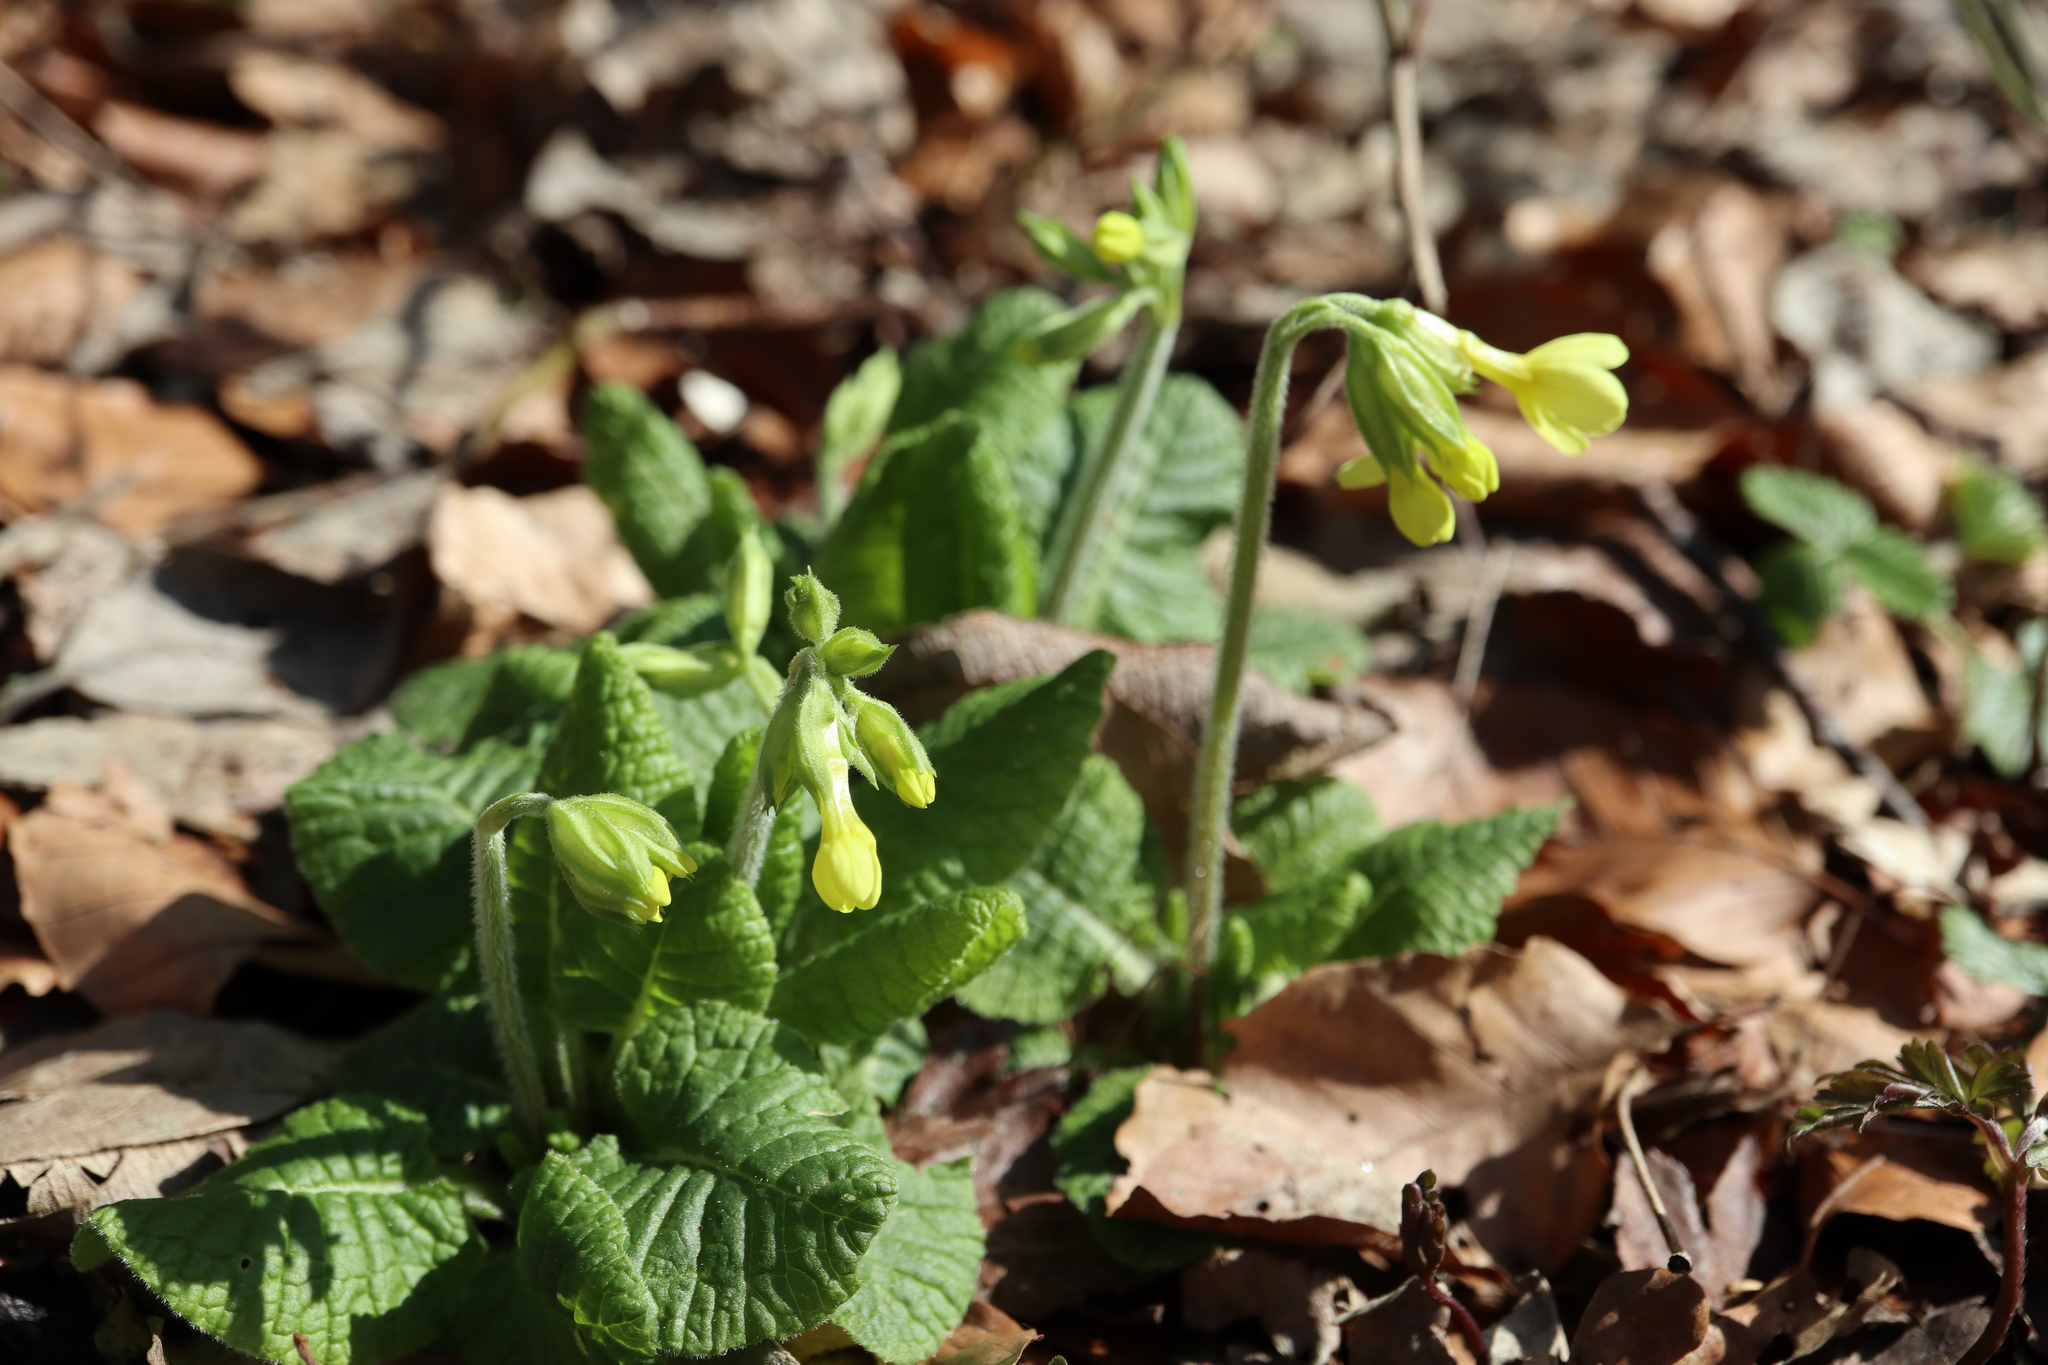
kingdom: Plantae
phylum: Tracheophyta
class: Magnoliopsida
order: Ericales
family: Primulaceae
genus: Primula
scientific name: Primula elatior
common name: Oxlip
